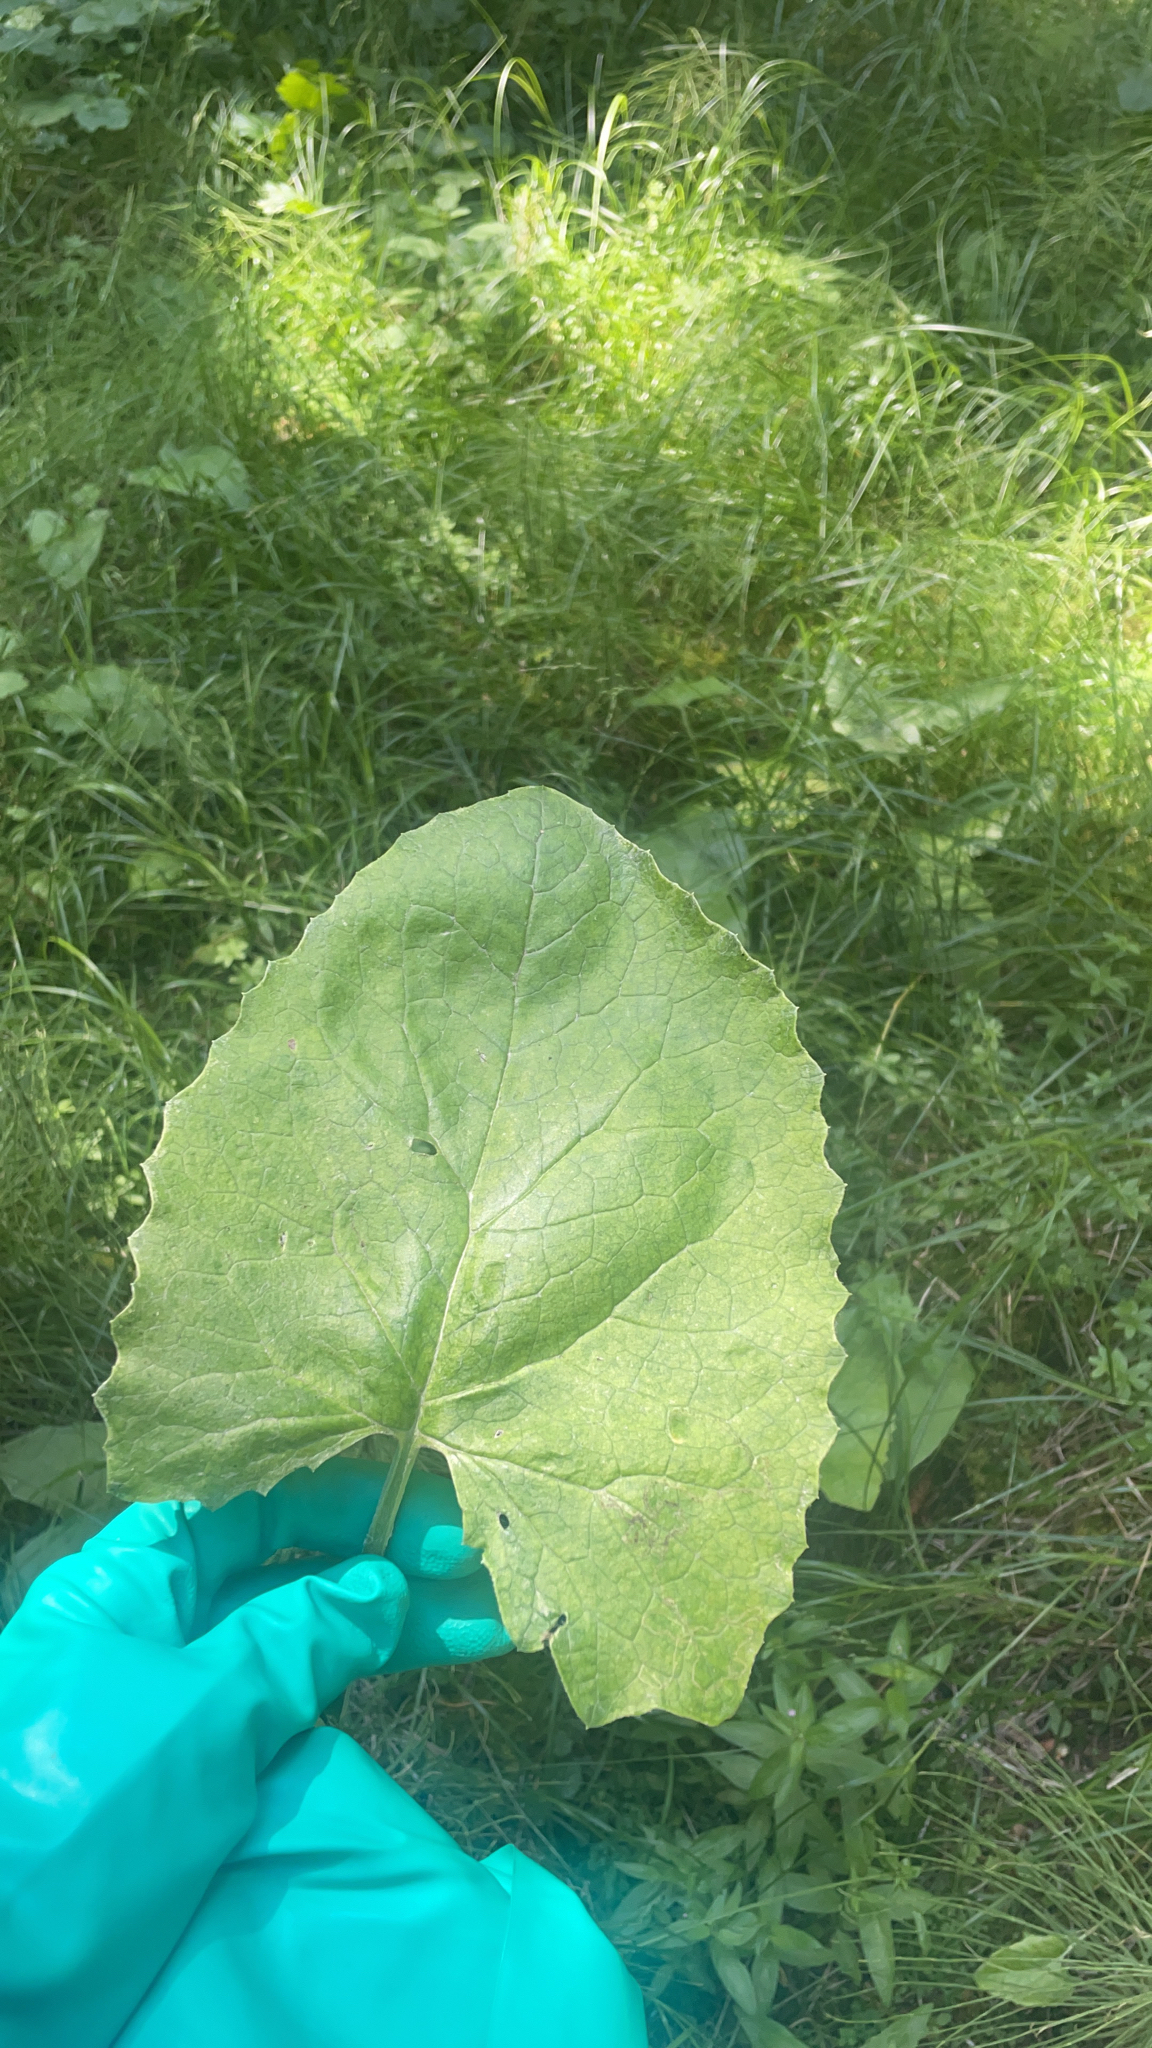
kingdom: Plantae
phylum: Tracheophyta
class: Magnoliopsida
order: Asterales
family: Asteraceae
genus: Petasites
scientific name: Petasites frigidus
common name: Arctic butterbur
